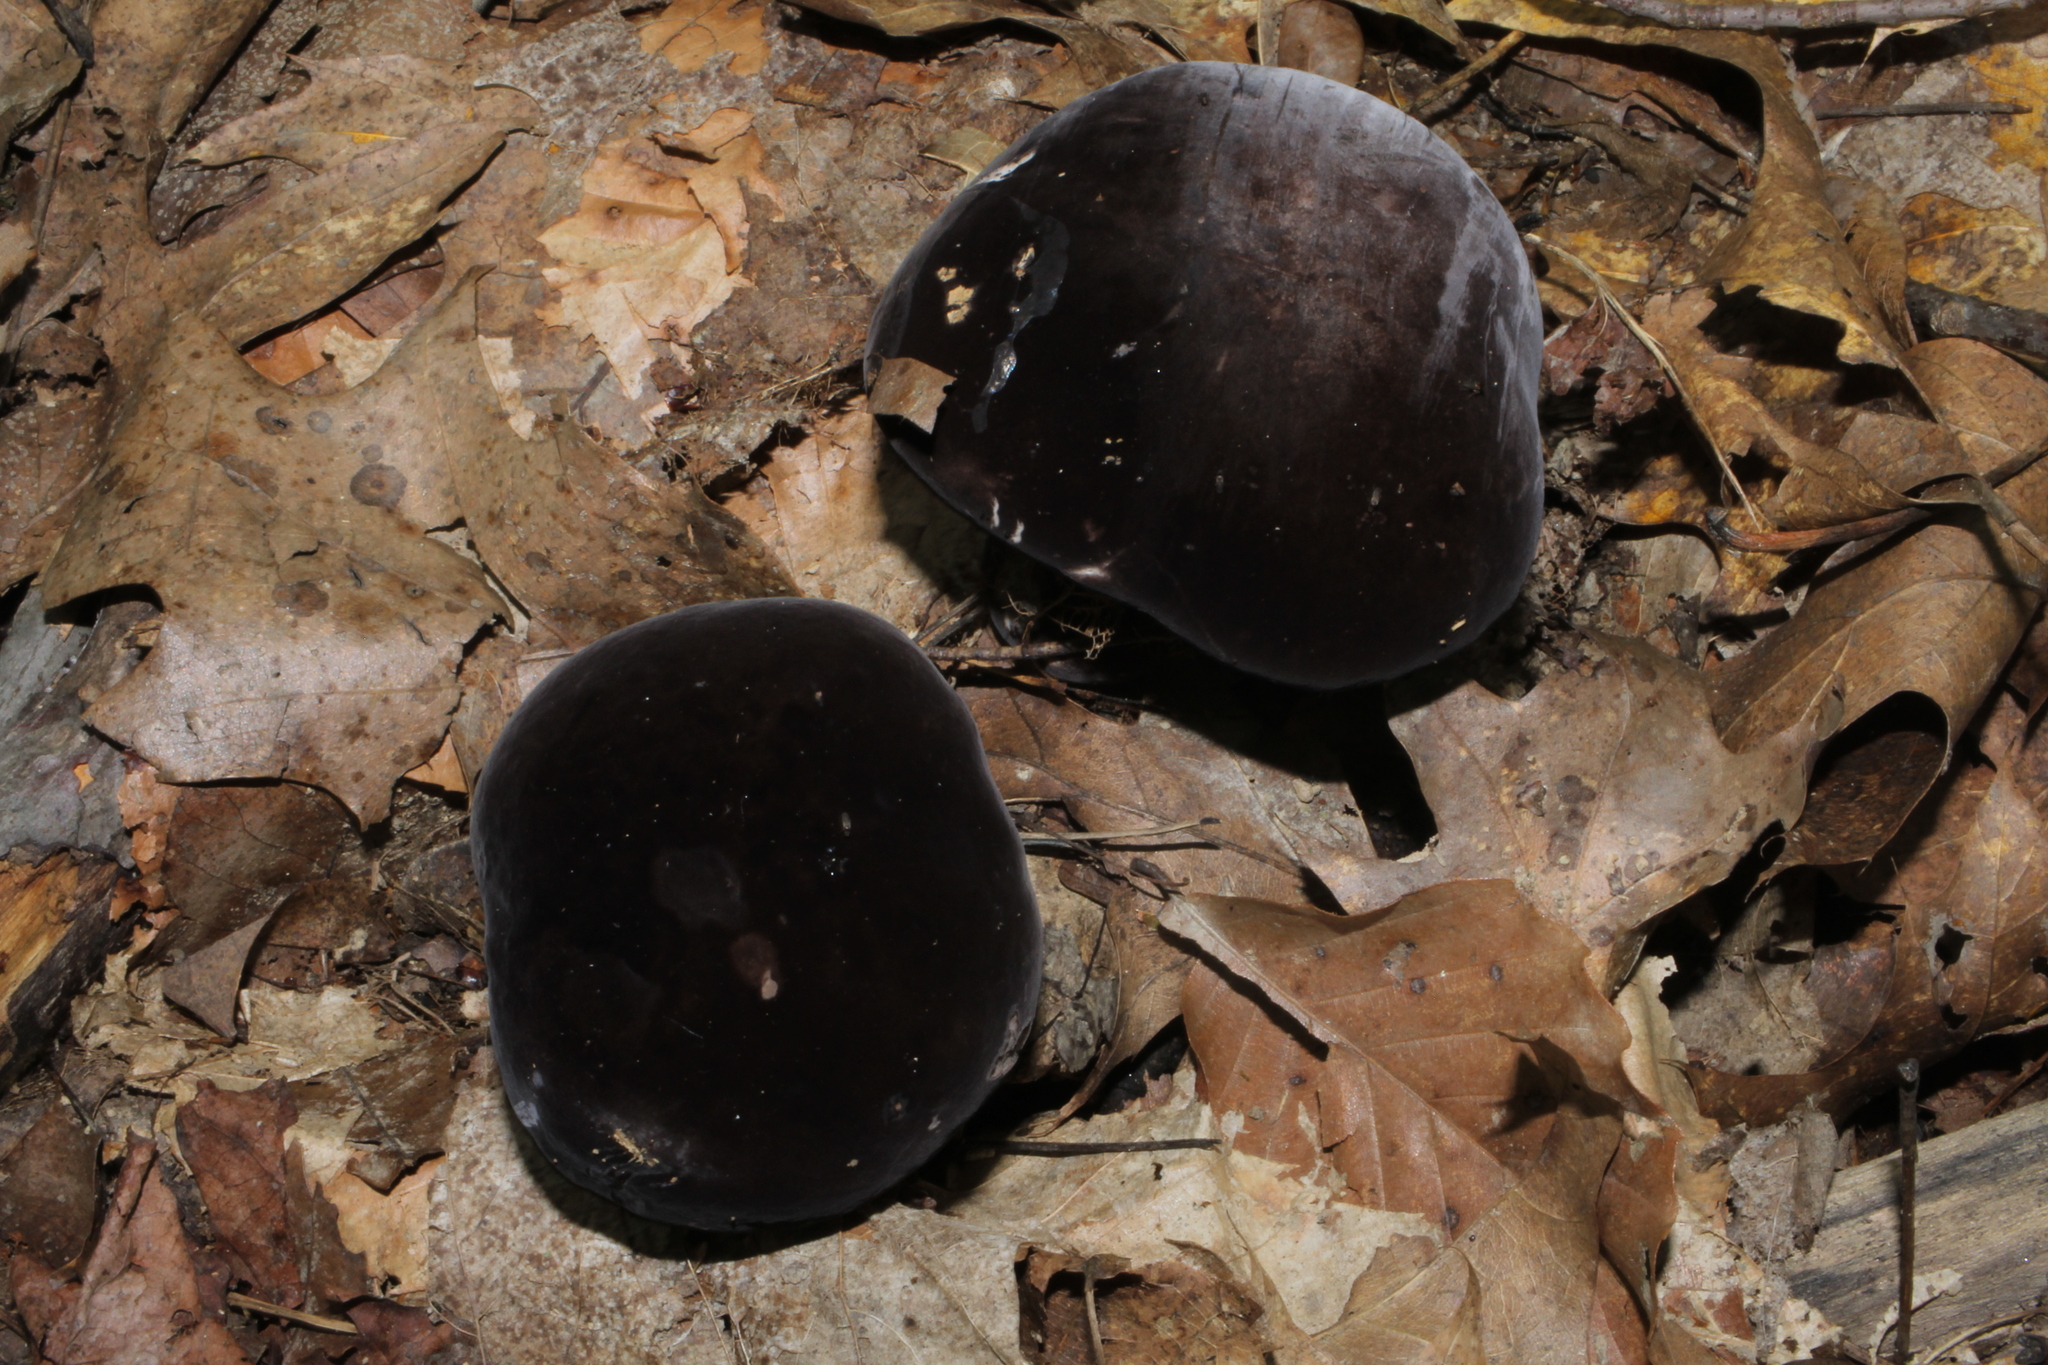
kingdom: Fungi
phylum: Basidiomycota
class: Agaricomycetes
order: Boletales
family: Boletaceae
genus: Tylopilus
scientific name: Tylopilus alboater
